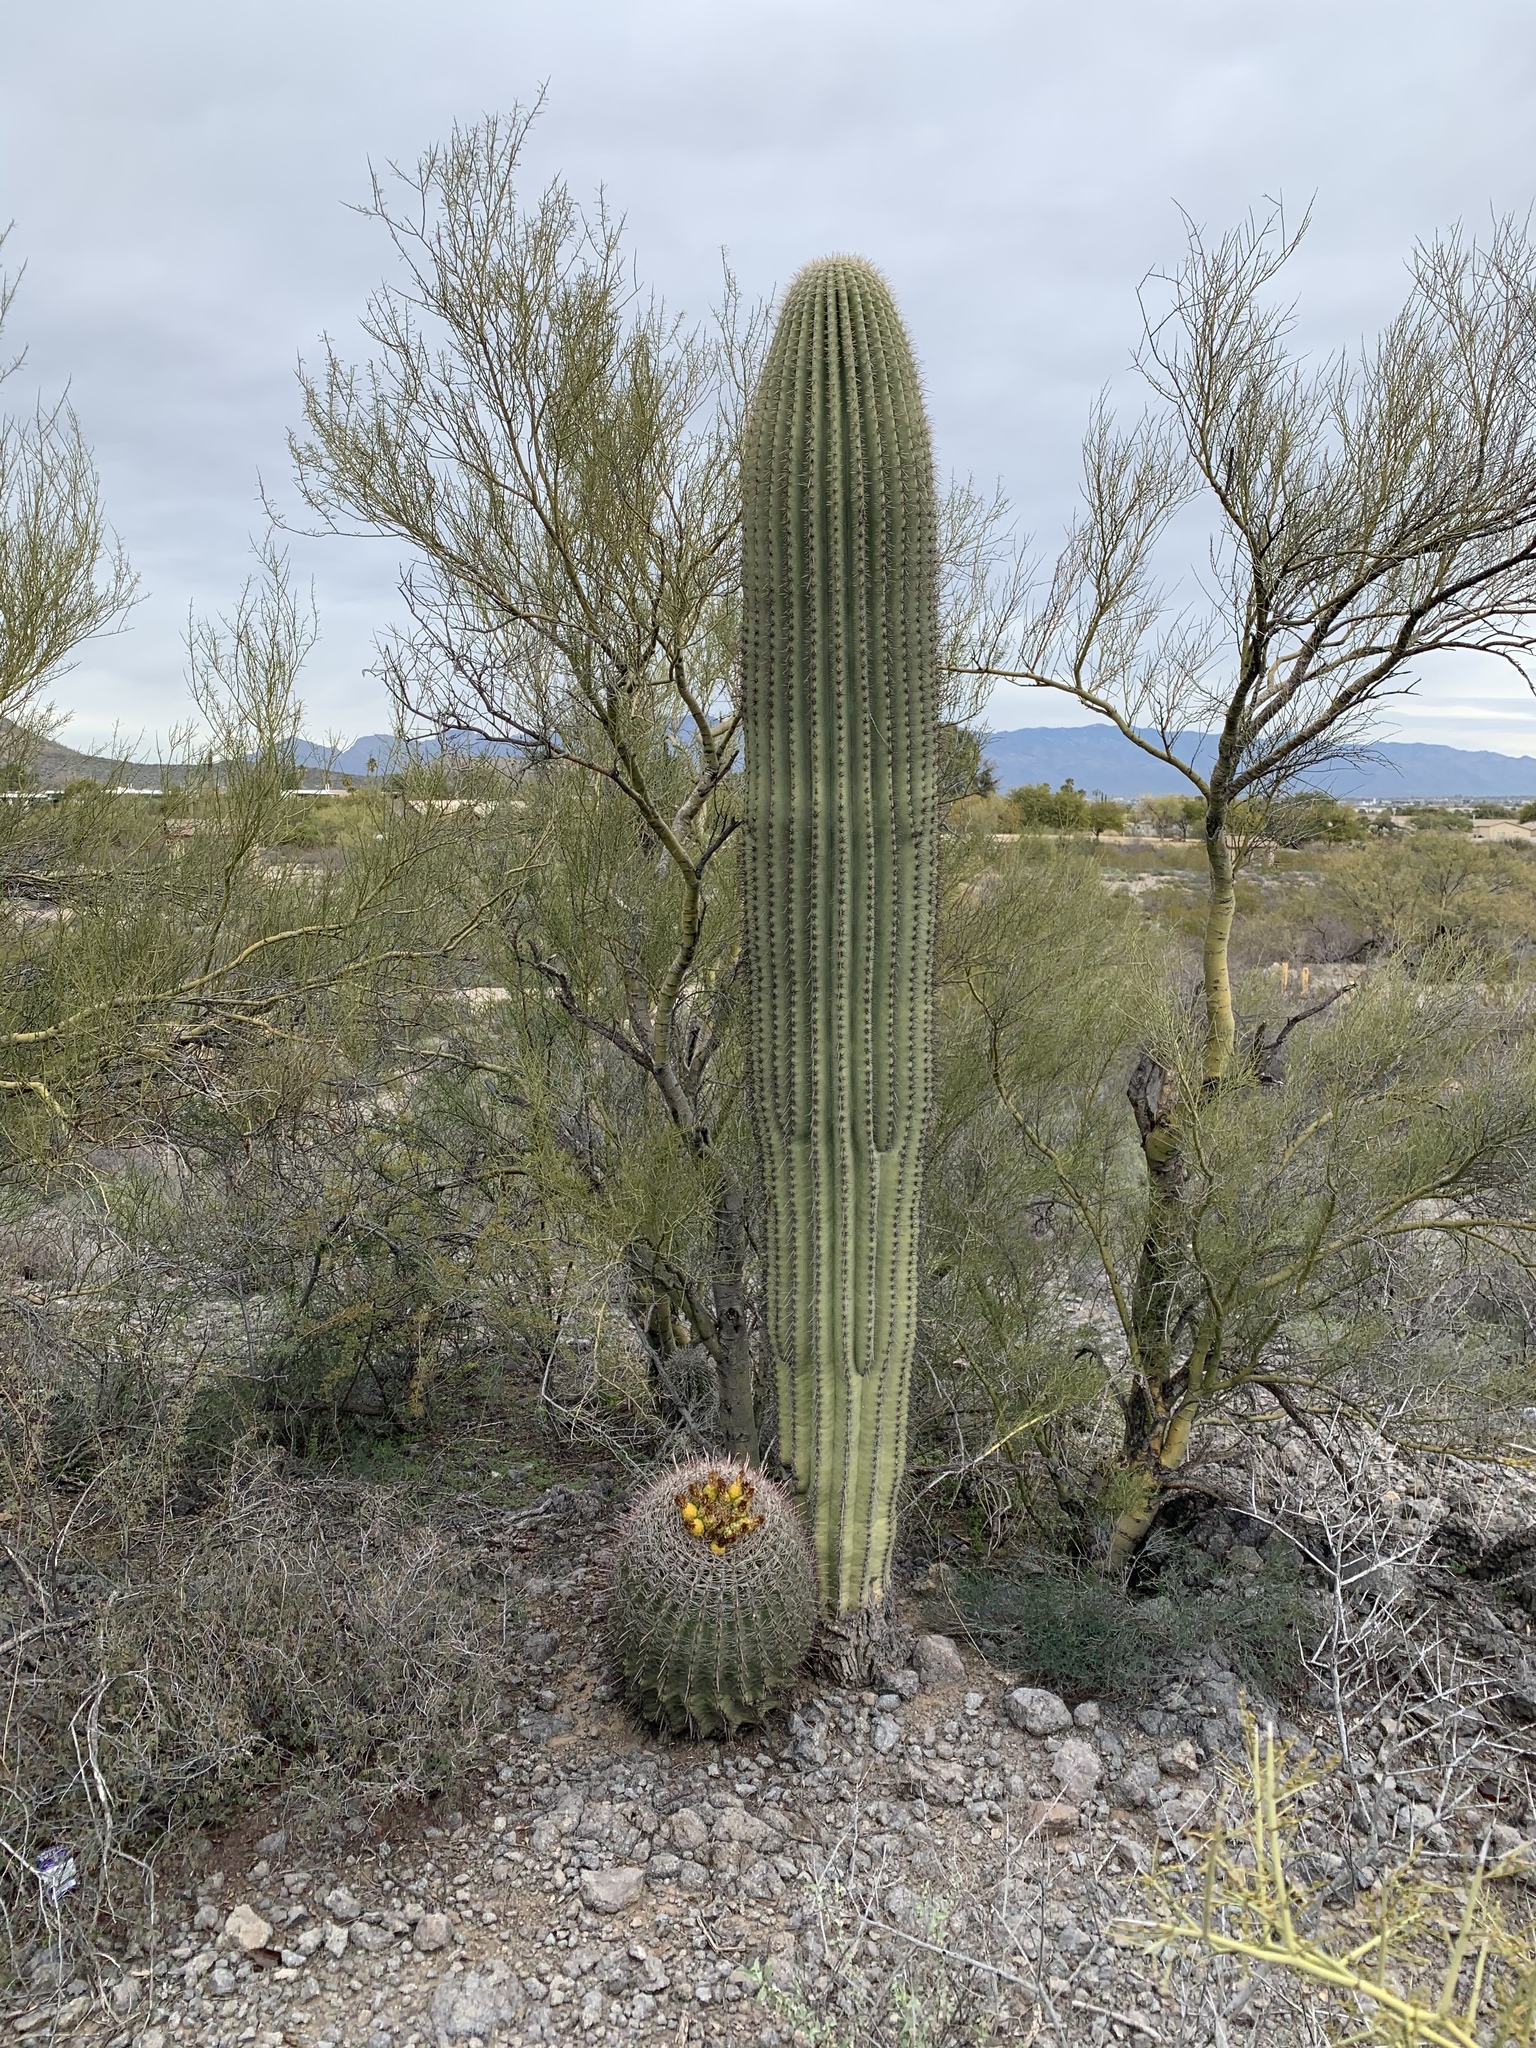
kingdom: Plantae
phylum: Tracheophyta
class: Magnoliopsida
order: Caryophyllales
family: Cactaceae
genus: Carnegiea
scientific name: Carnegiea gigantea
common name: Saguaro
